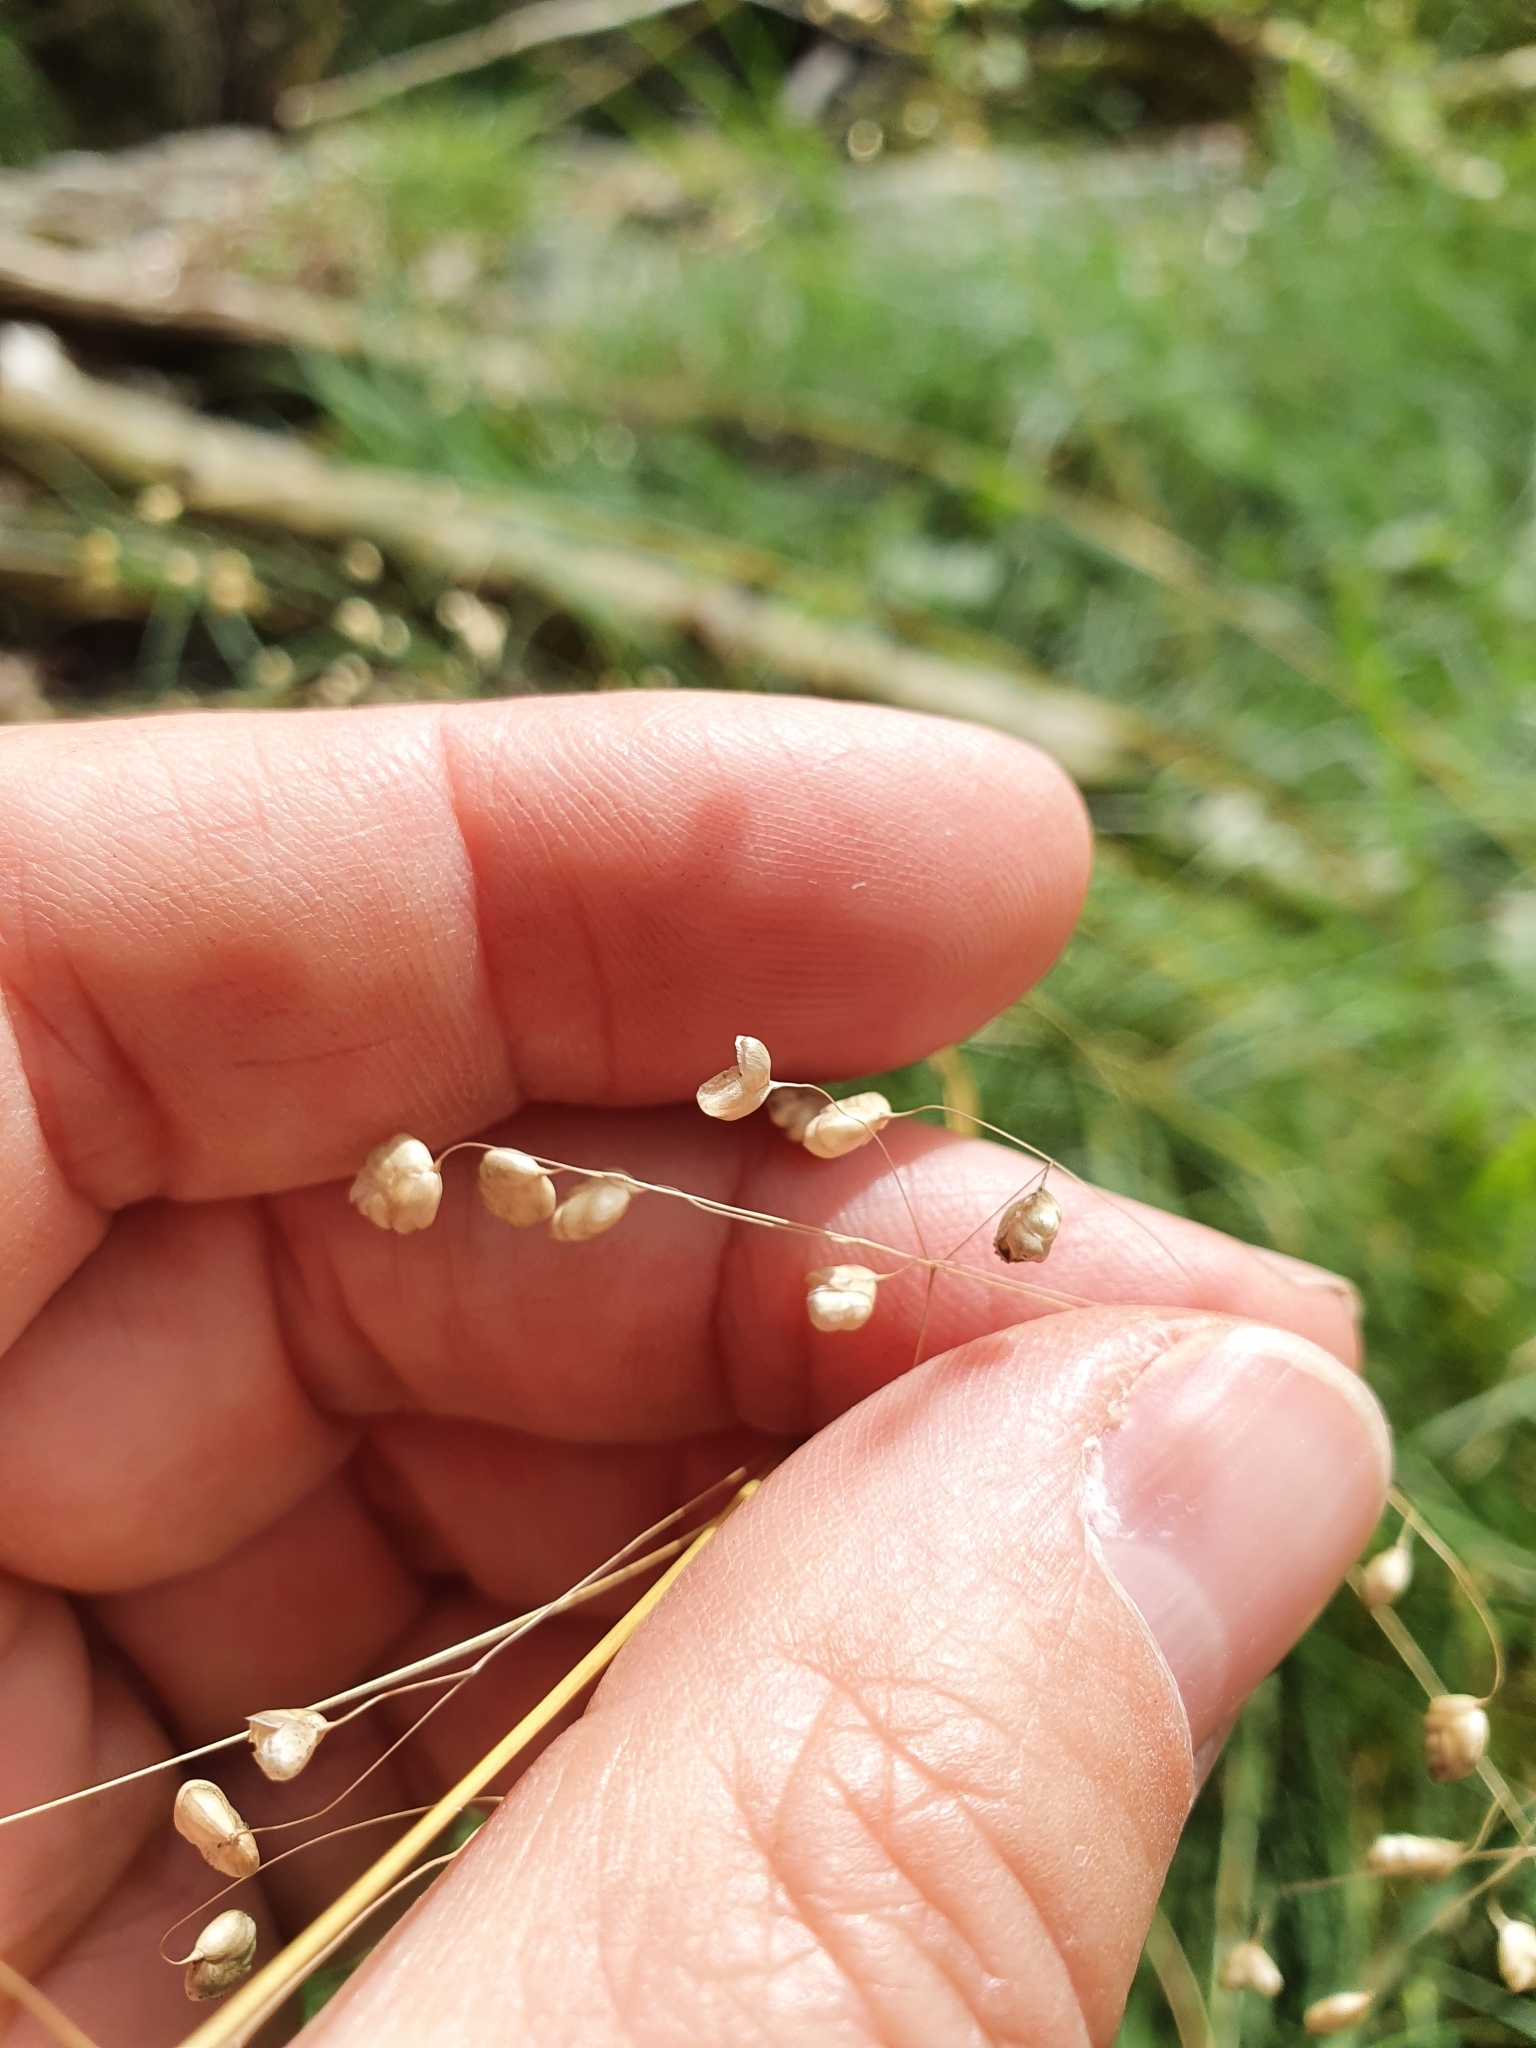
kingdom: Plantae
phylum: Tracheophyta
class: Liliopsida
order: Poales
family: Poaceae
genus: Briza
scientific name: Briza media
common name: Quaking grass
